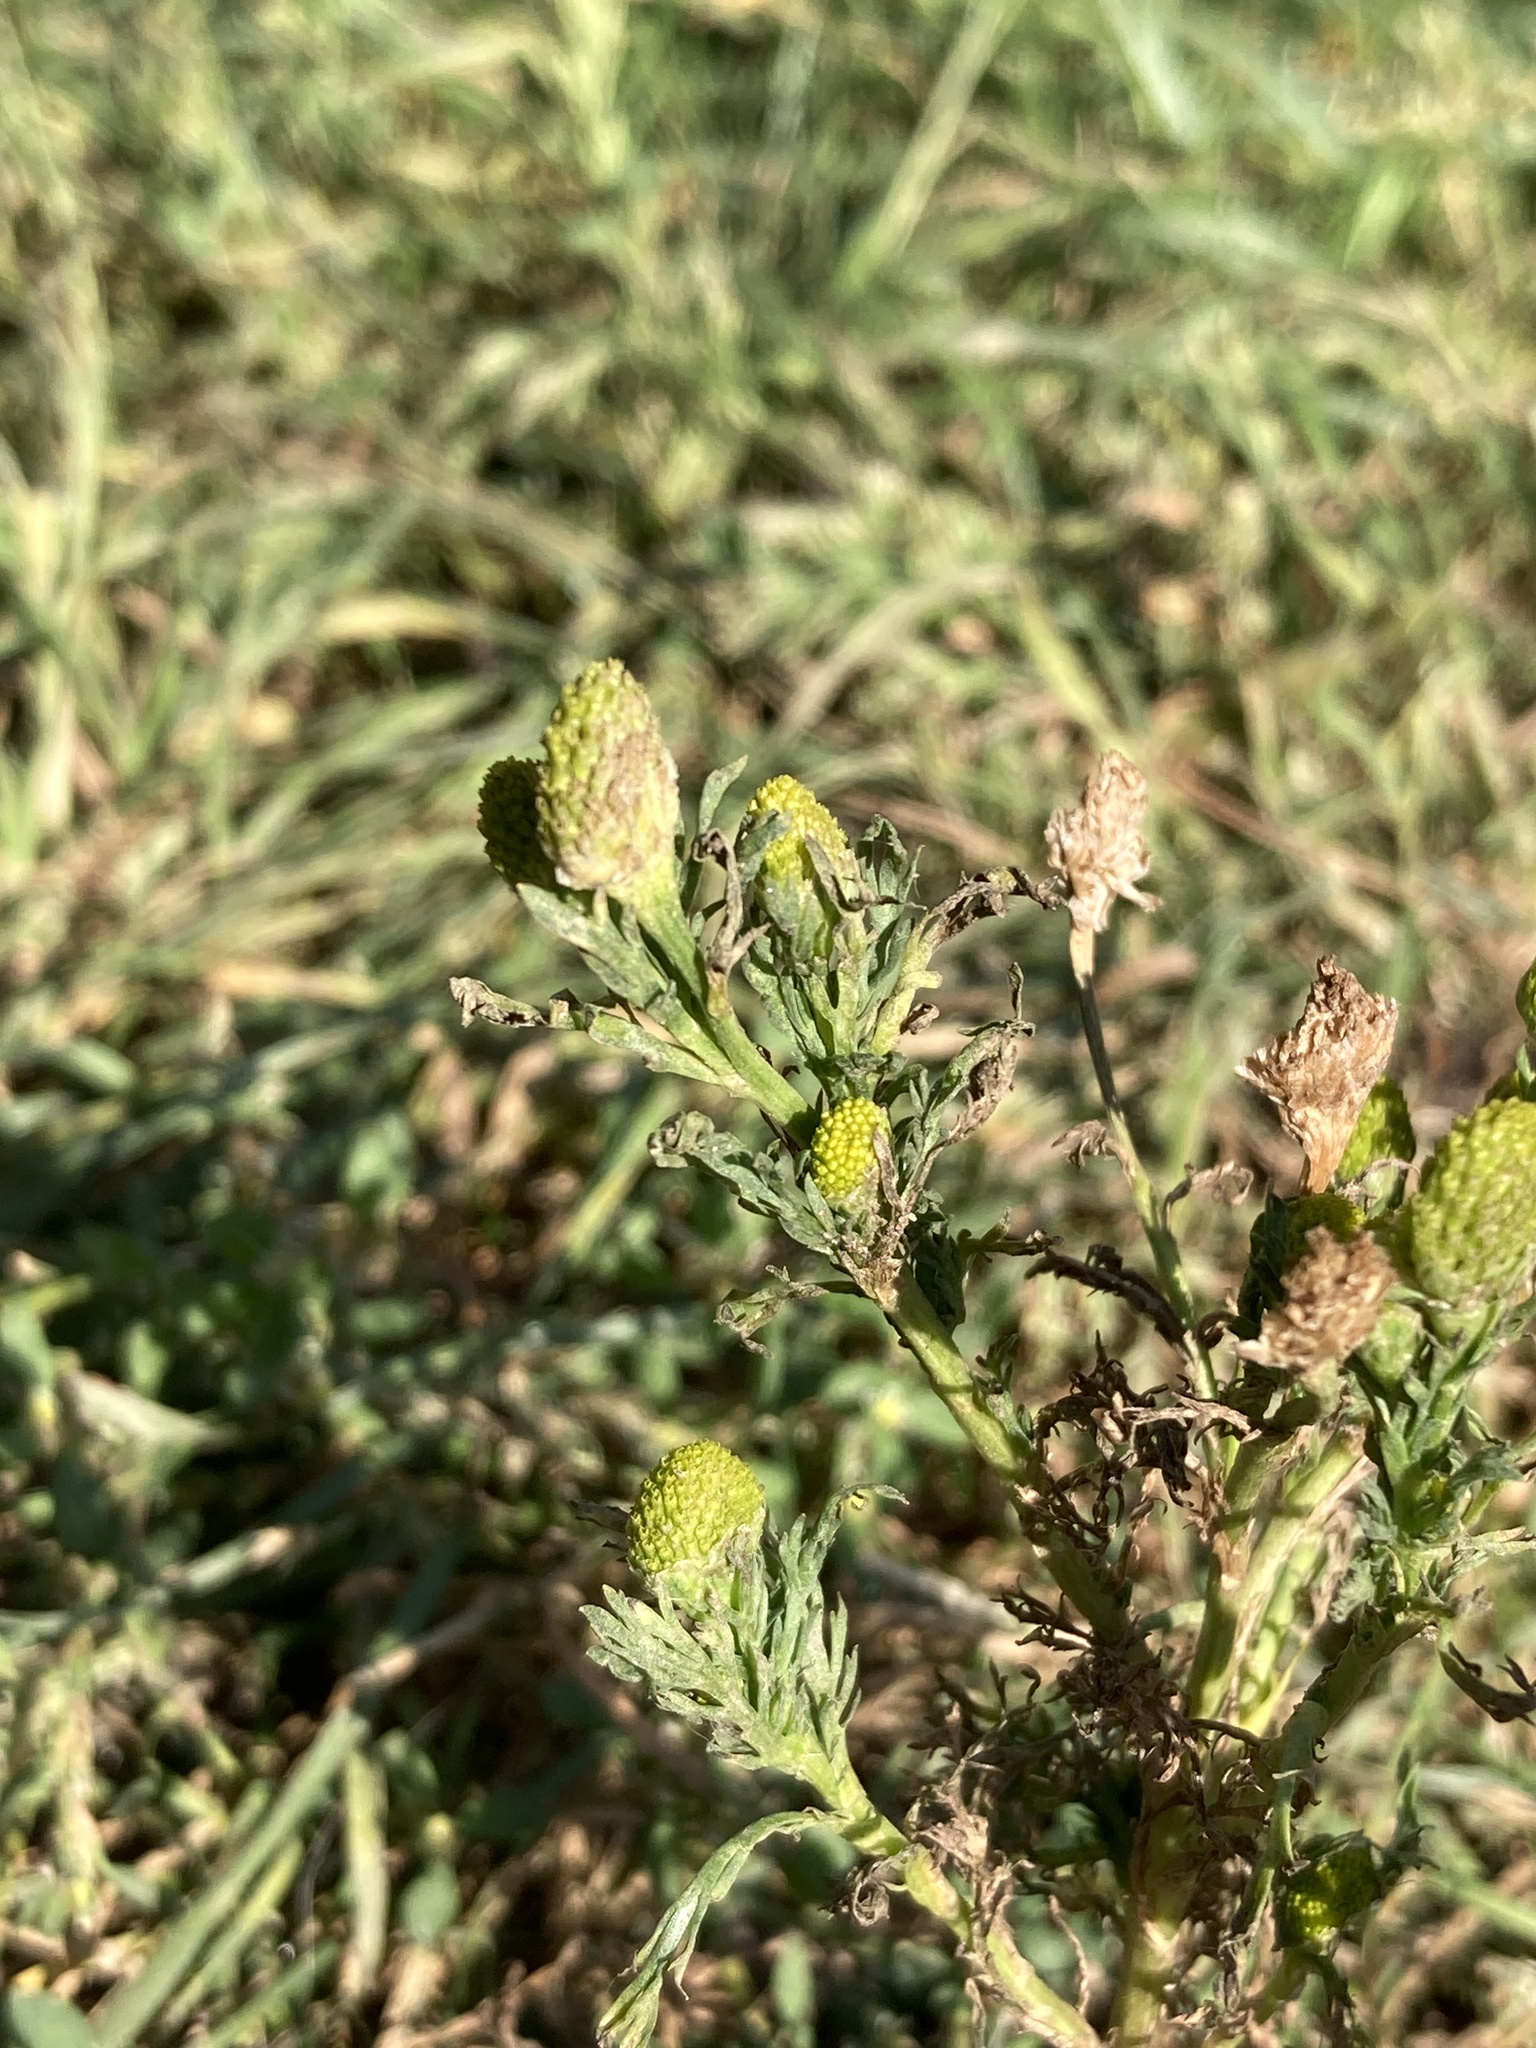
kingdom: Plantae
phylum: Tracheophyta
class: Magnoliopsida
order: Asterales
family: Asteraceae
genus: Matricaria
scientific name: Matricaria discoidea
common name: Disc mayweed
